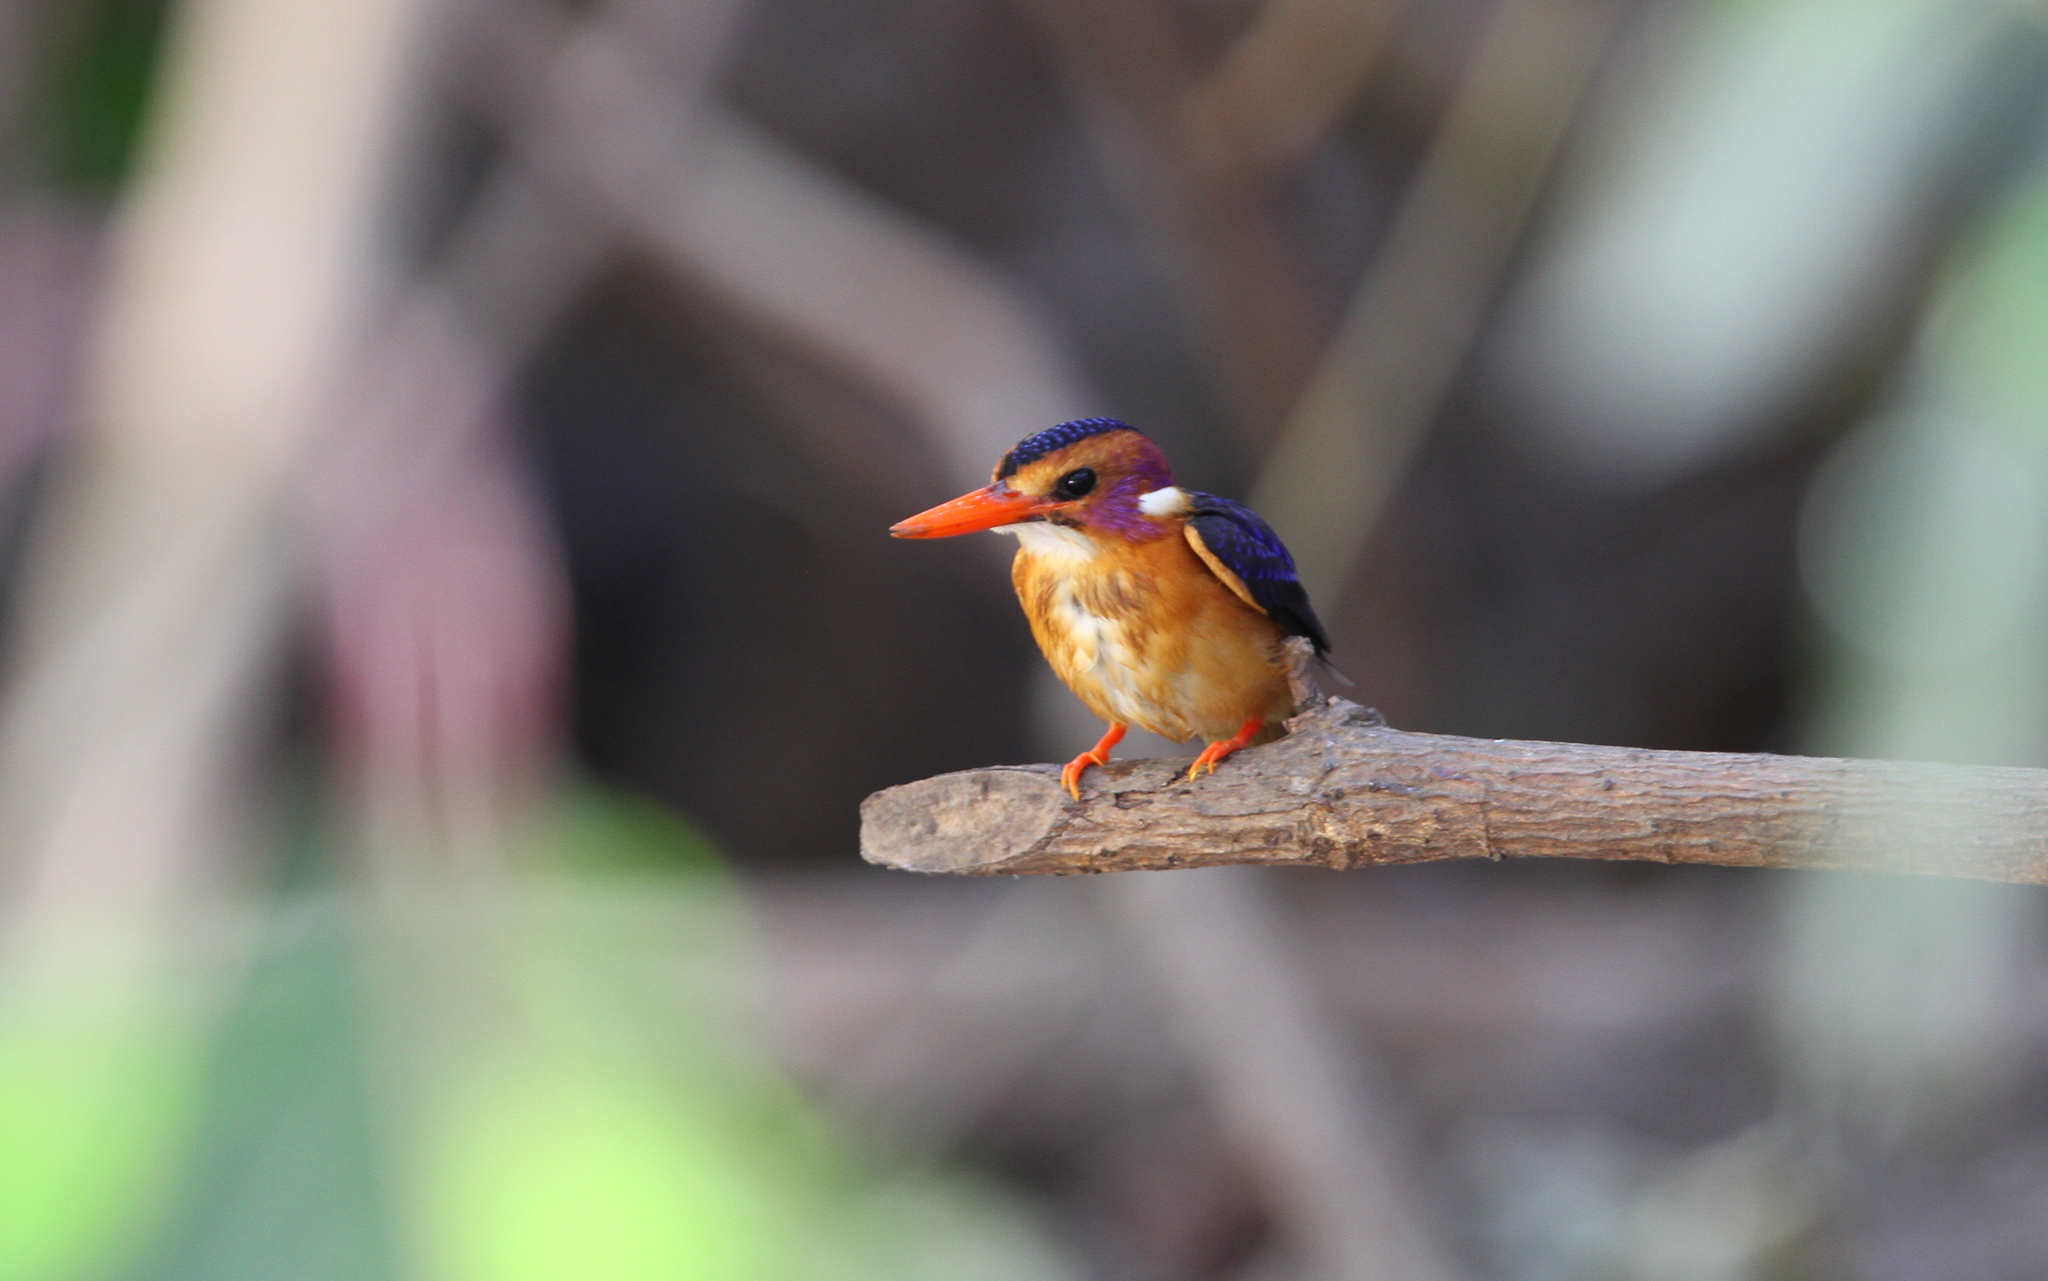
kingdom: Animalia
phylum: Chordata
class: Aves
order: Coraciiformes
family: Alcedinidae
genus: Ispidina
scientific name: Ispidina picta
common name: African pygmy-kingfisher
